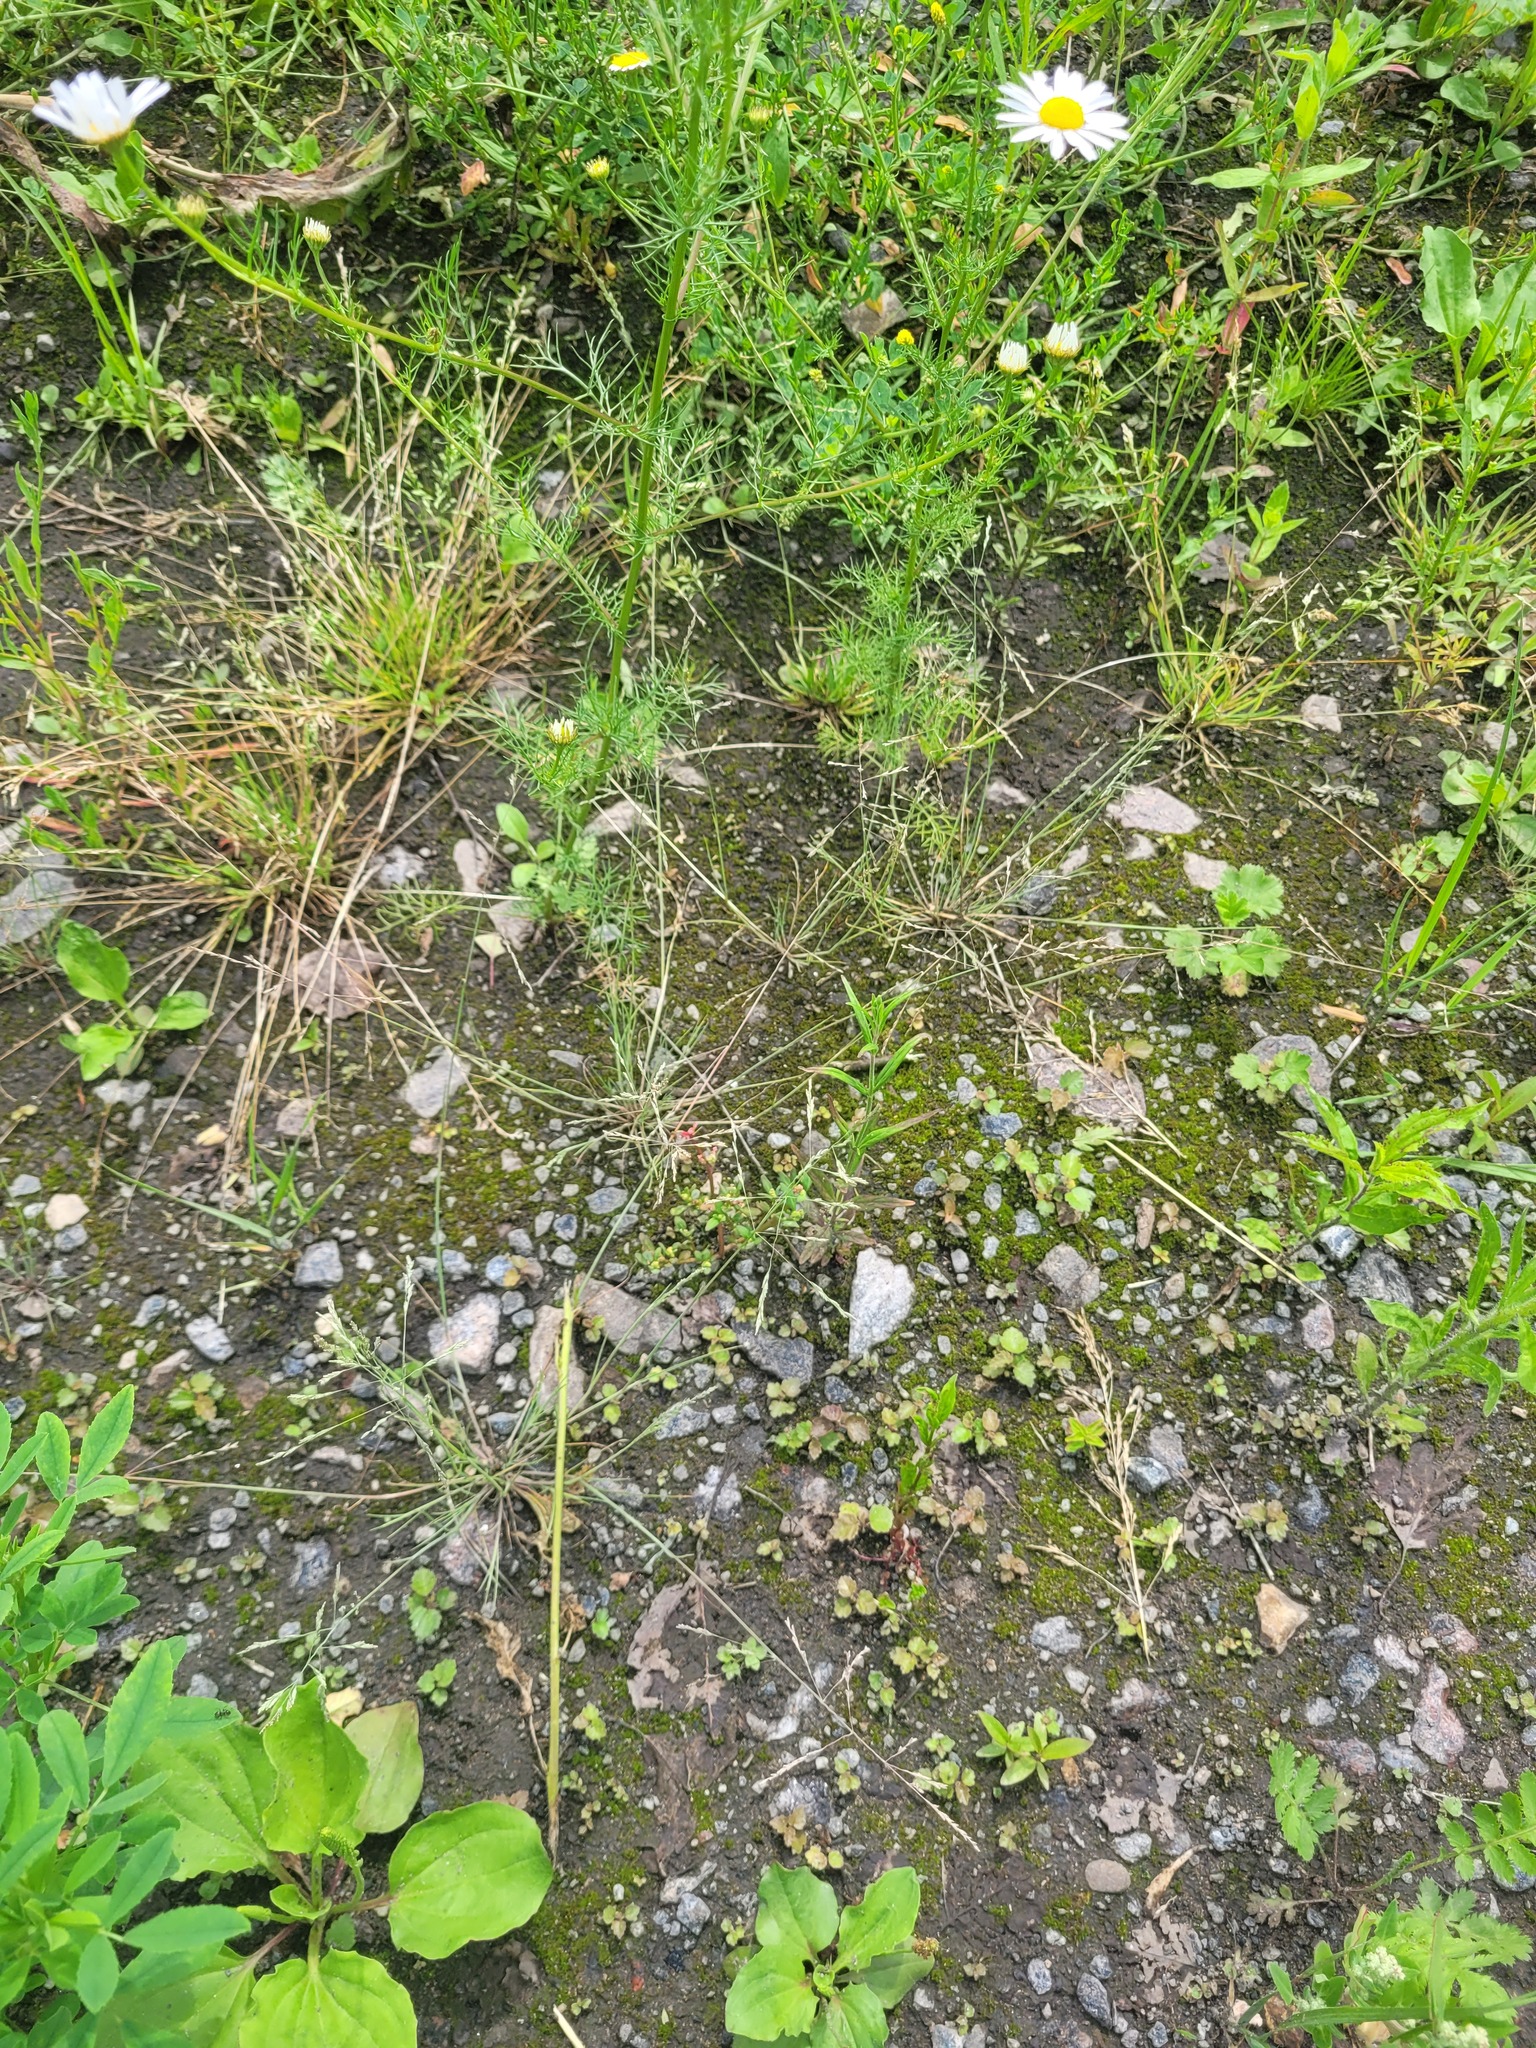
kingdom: Plantae
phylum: Tracheophyta
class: Liliopsida
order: Poales
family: Poaceae
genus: Puccinellia
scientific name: Puccinellia distans
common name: Weeping alkaligrass
